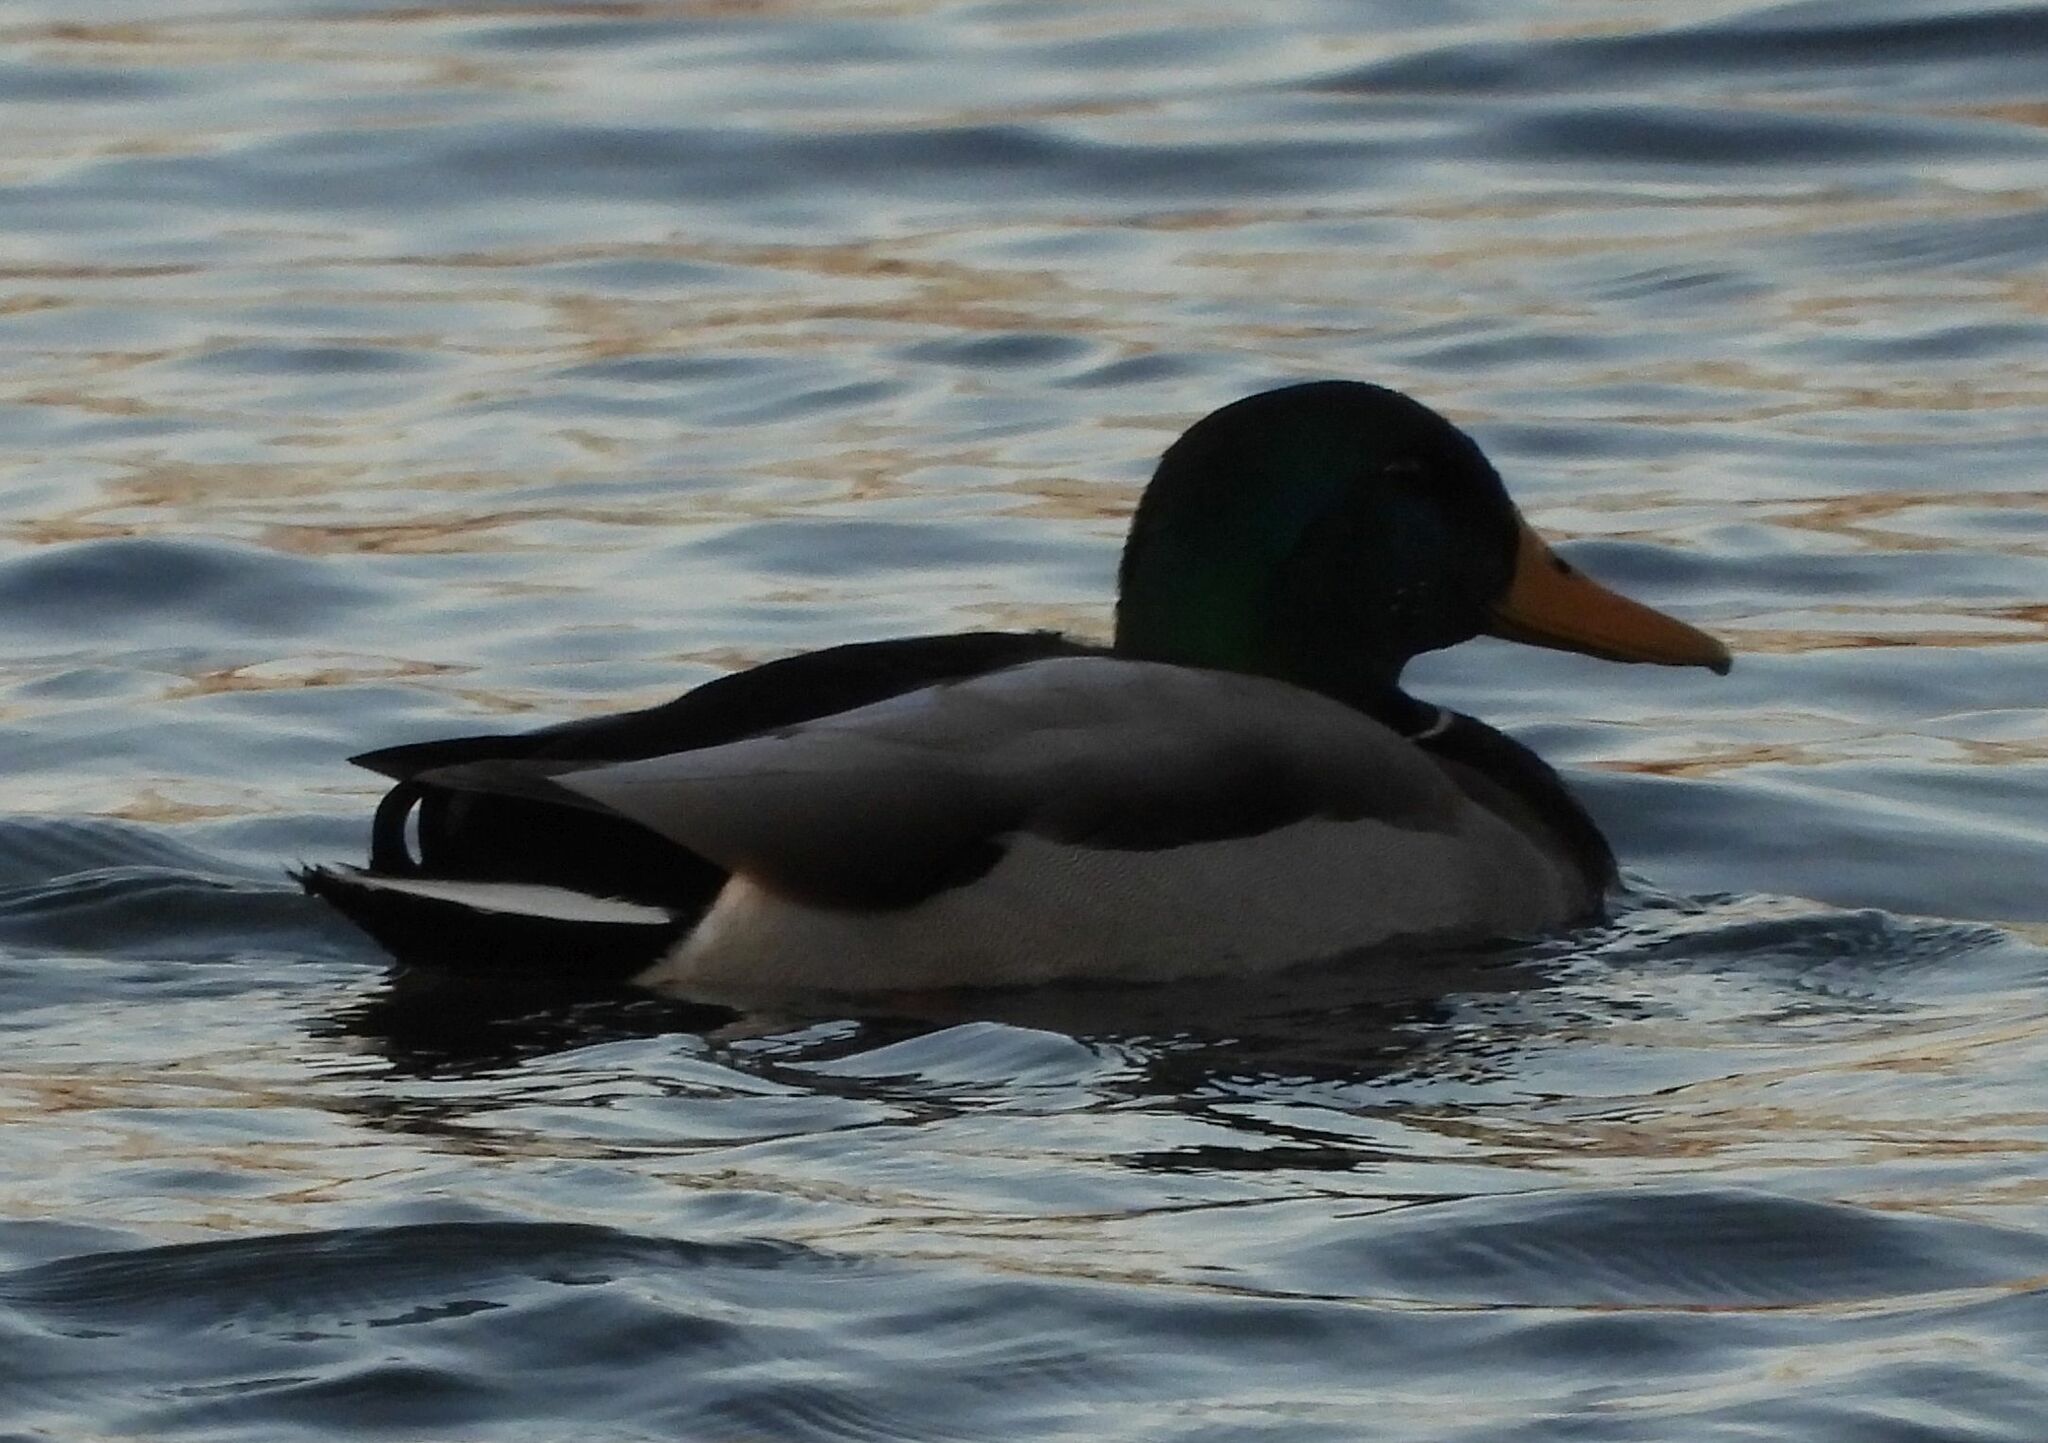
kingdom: Animalia
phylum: Chordata
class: Aves
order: Anseriformes
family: Anatidae
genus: Anas
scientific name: Anas platyrhynchos
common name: Mallard
